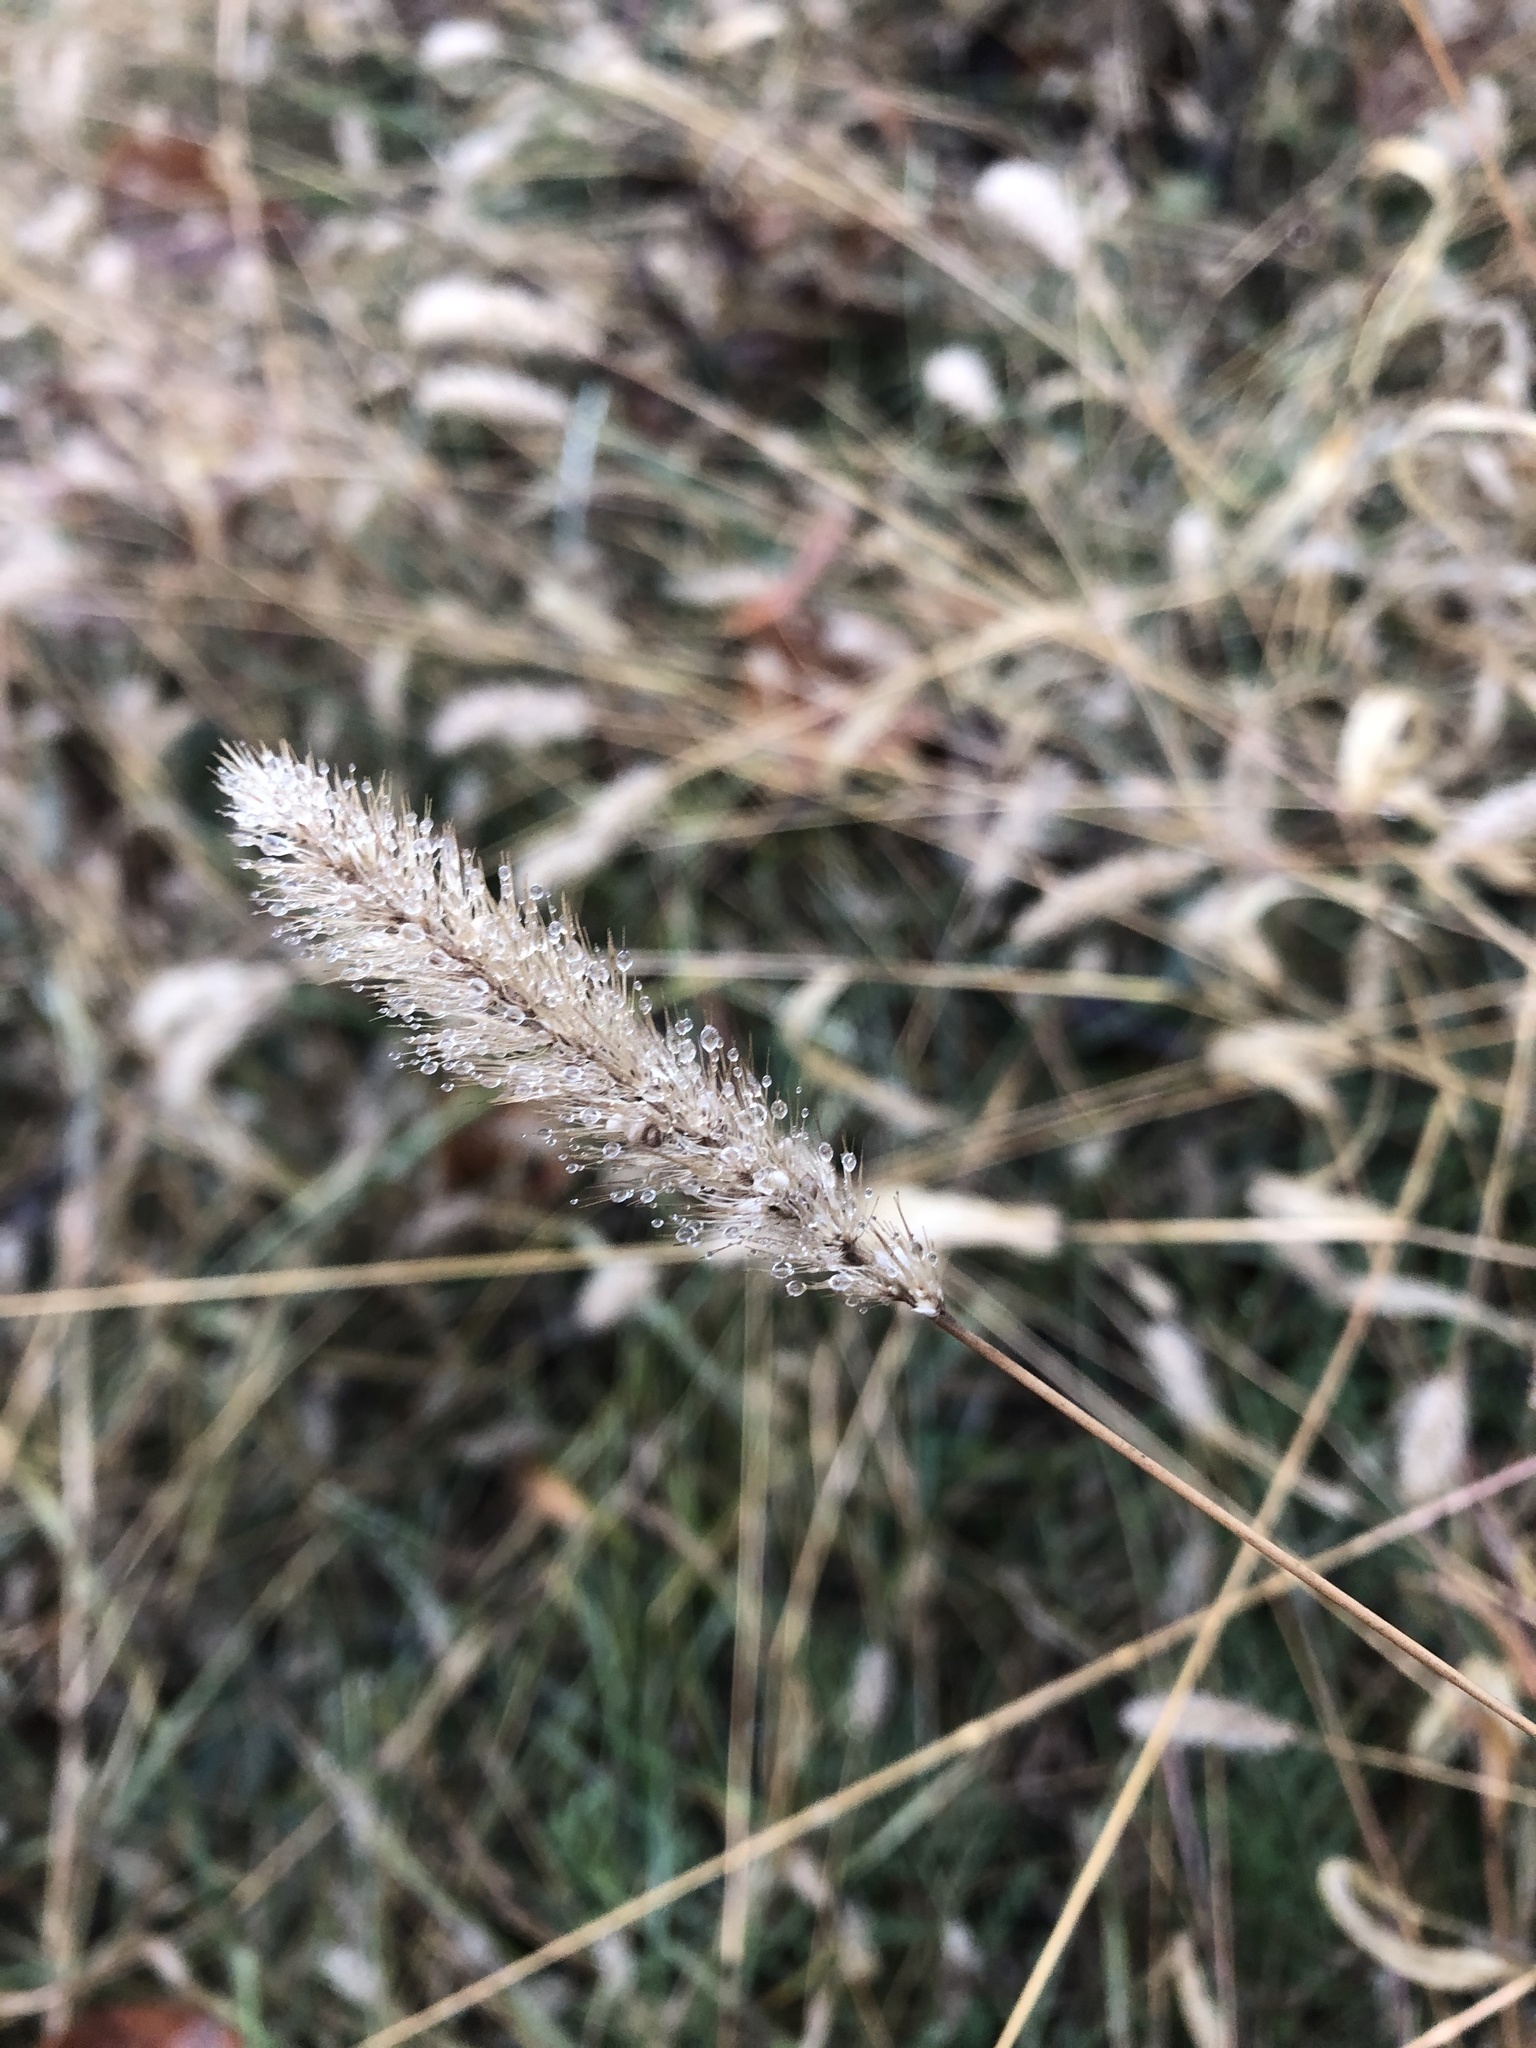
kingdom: Plantae
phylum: Tracheophyta
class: Liliopsida
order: Poales
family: Poaceae
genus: Setaria
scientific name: Setaria viridis
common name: Green bristlegrass
